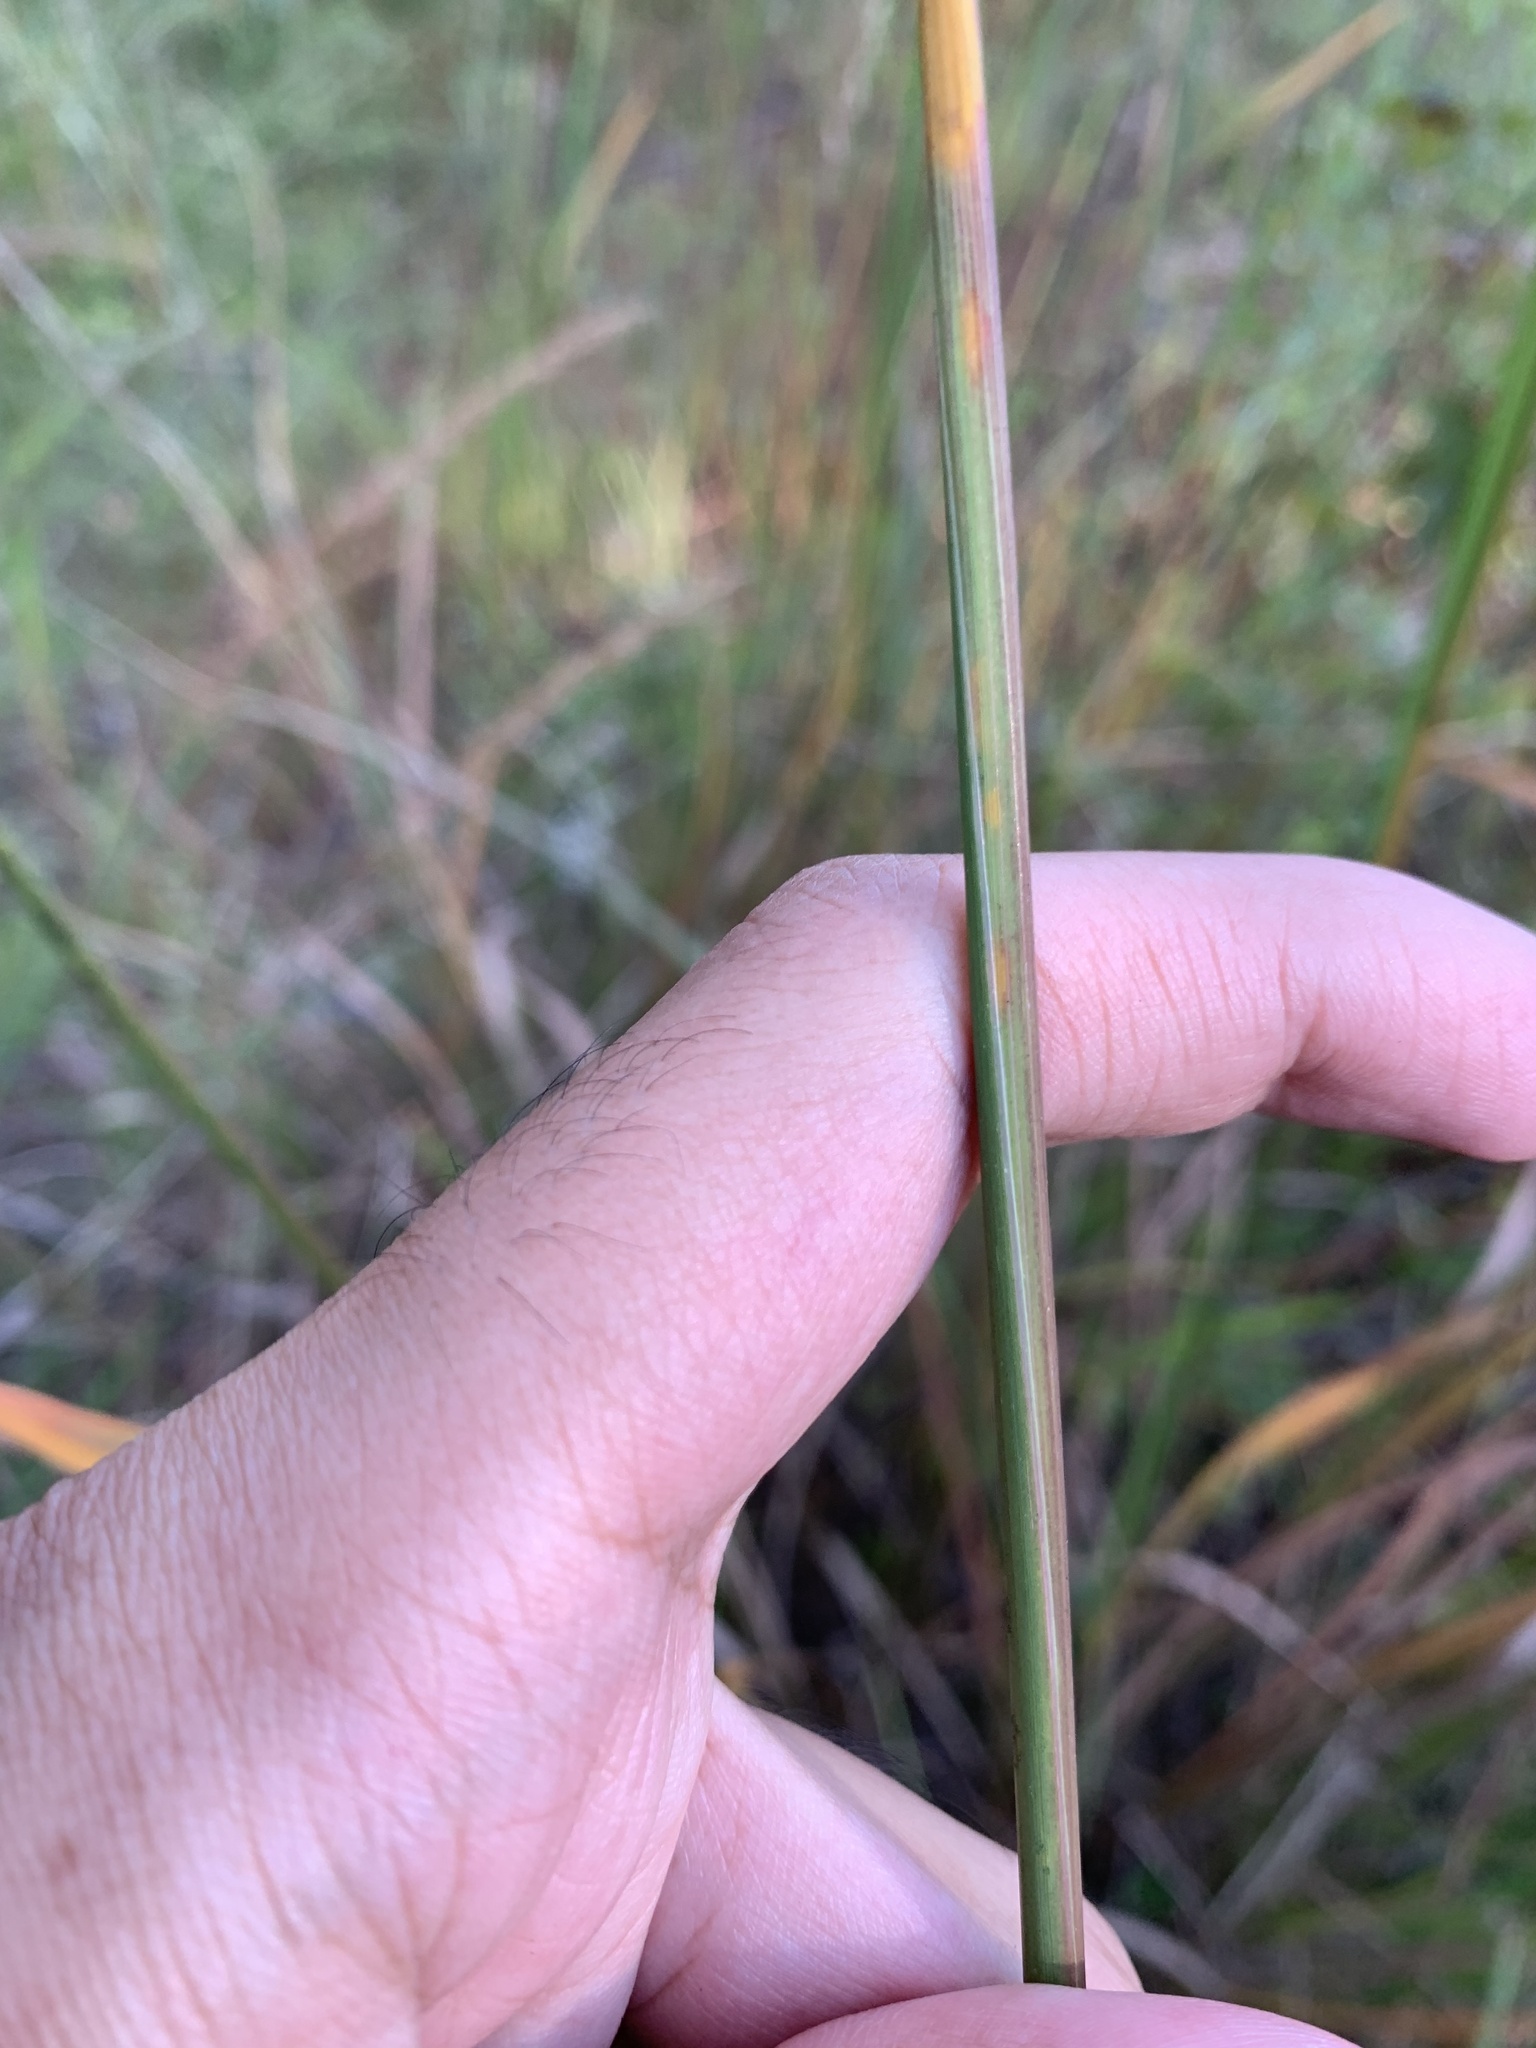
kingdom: Plantae
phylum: Tracheophyta
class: Liliopsida
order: Poales
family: Poaceae
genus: Sorghastrum
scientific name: Sorghastrum nutans
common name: Indian grass
